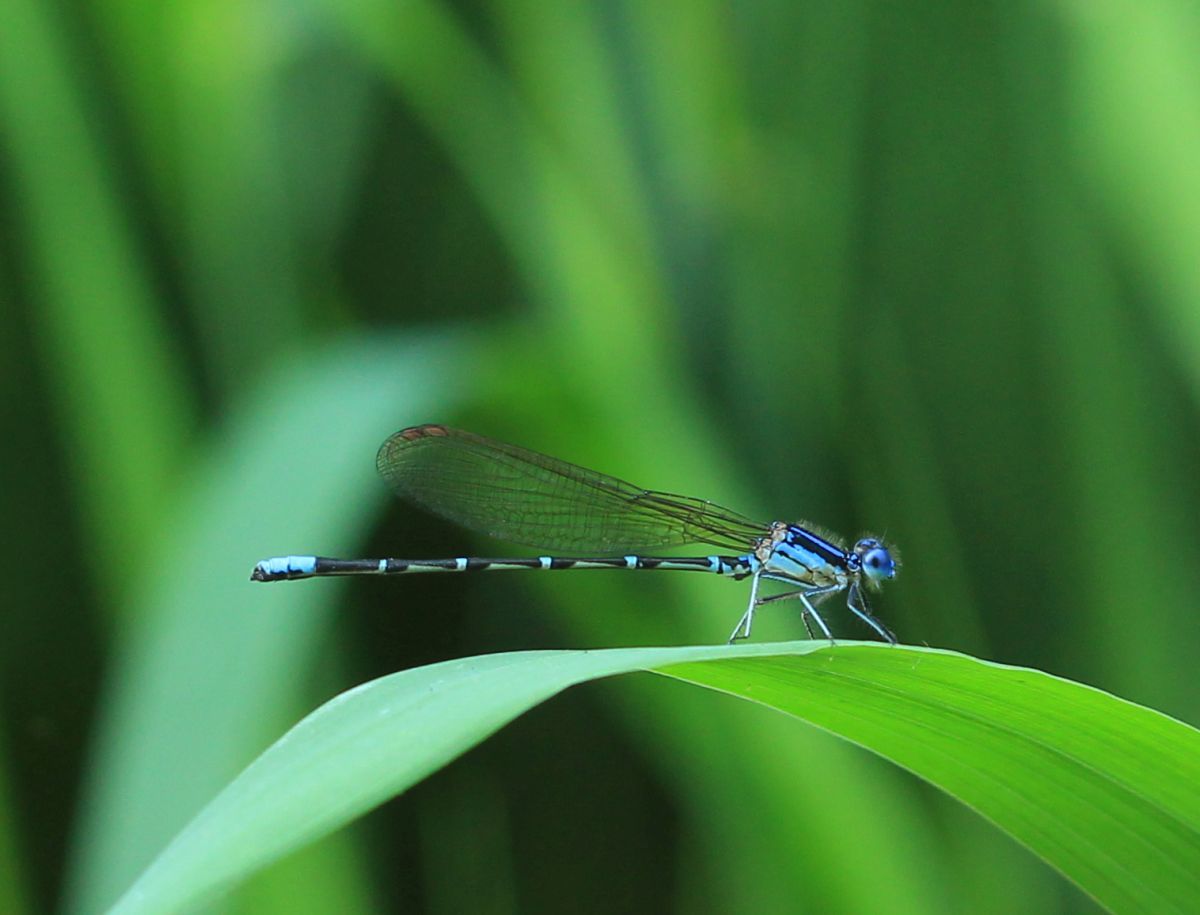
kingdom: Animalia
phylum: Arthropoda
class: Insecta
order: Odonata
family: Coenagrionidae
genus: Argia
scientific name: Argia sedula
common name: Blue-ringed dancer
